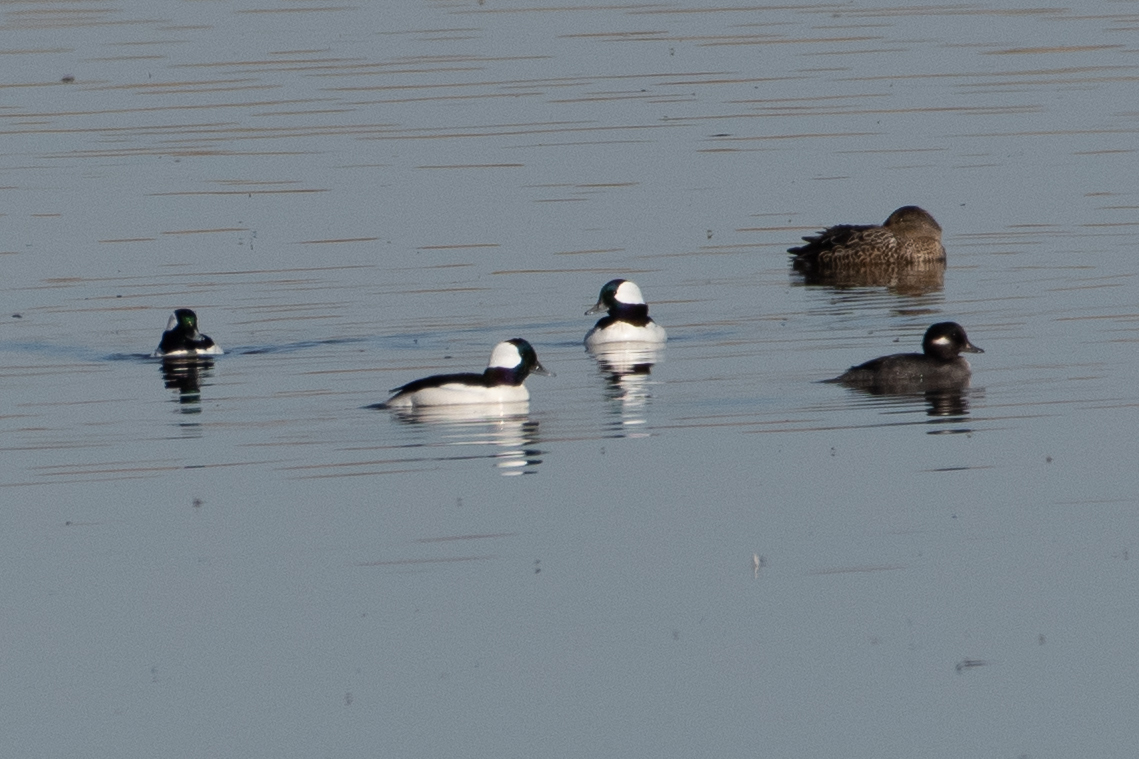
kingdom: Animalia
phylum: Chordata
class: Aves
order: Anseriformes
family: Anatidae
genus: Bucephala
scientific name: Bucephala albeola
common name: Bufflehead
